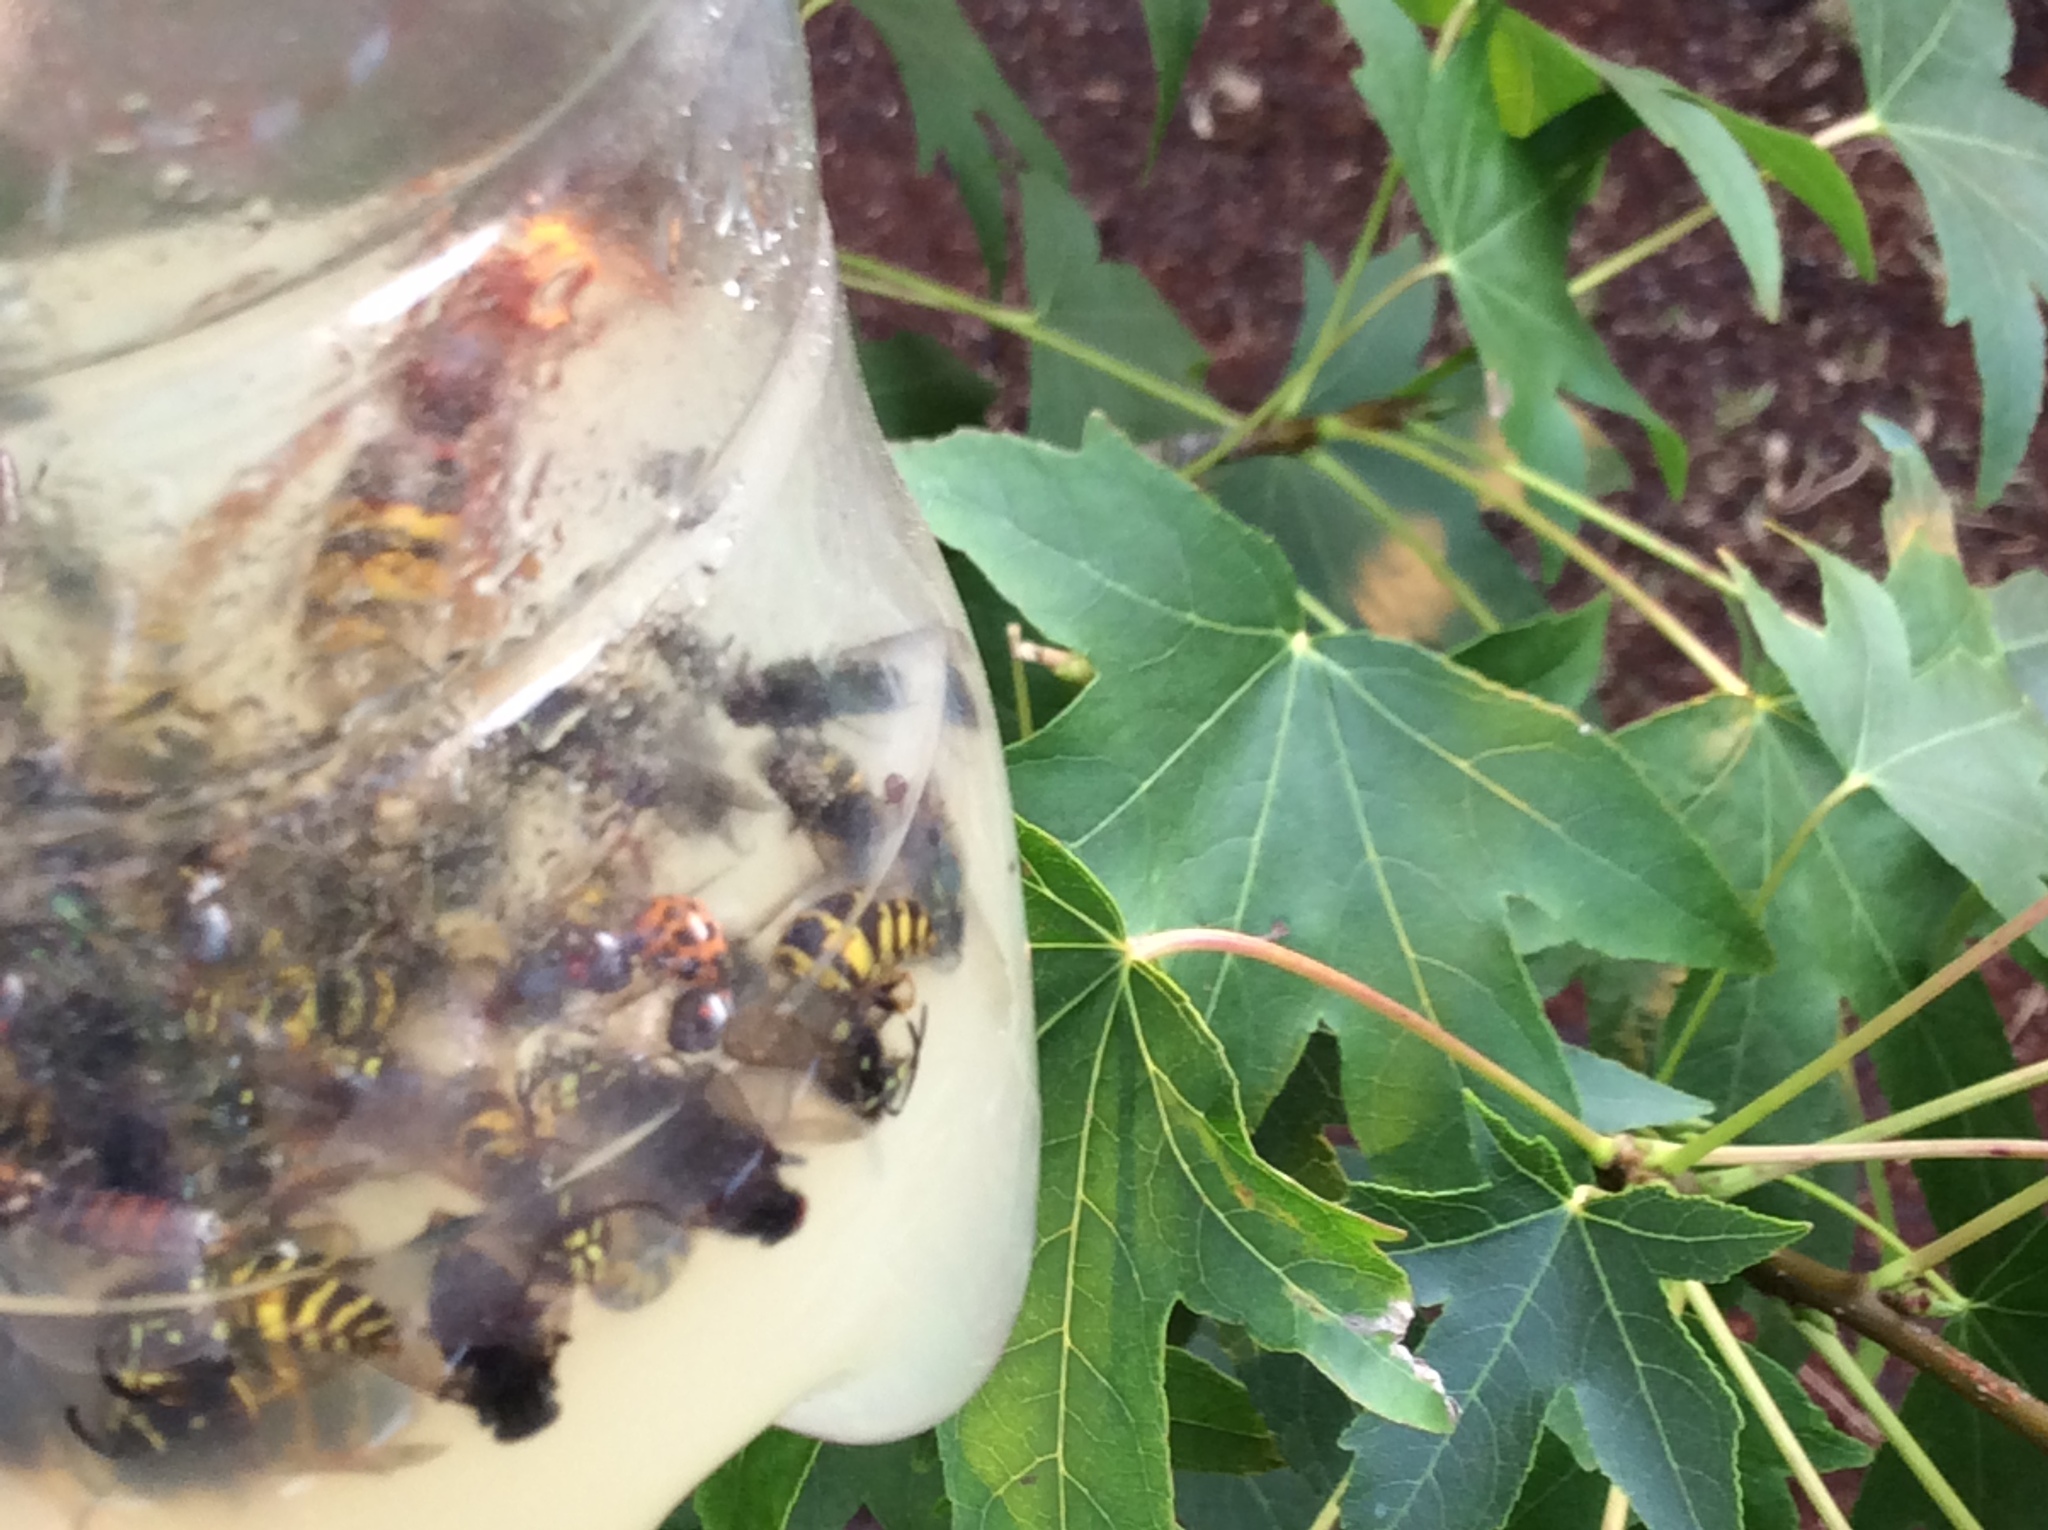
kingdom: Animalia
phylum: Arthropoda
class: Insecta
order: Hymenoptera
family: Vespidae
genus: Vespa
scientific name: Vespa crabro
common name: Hornet
